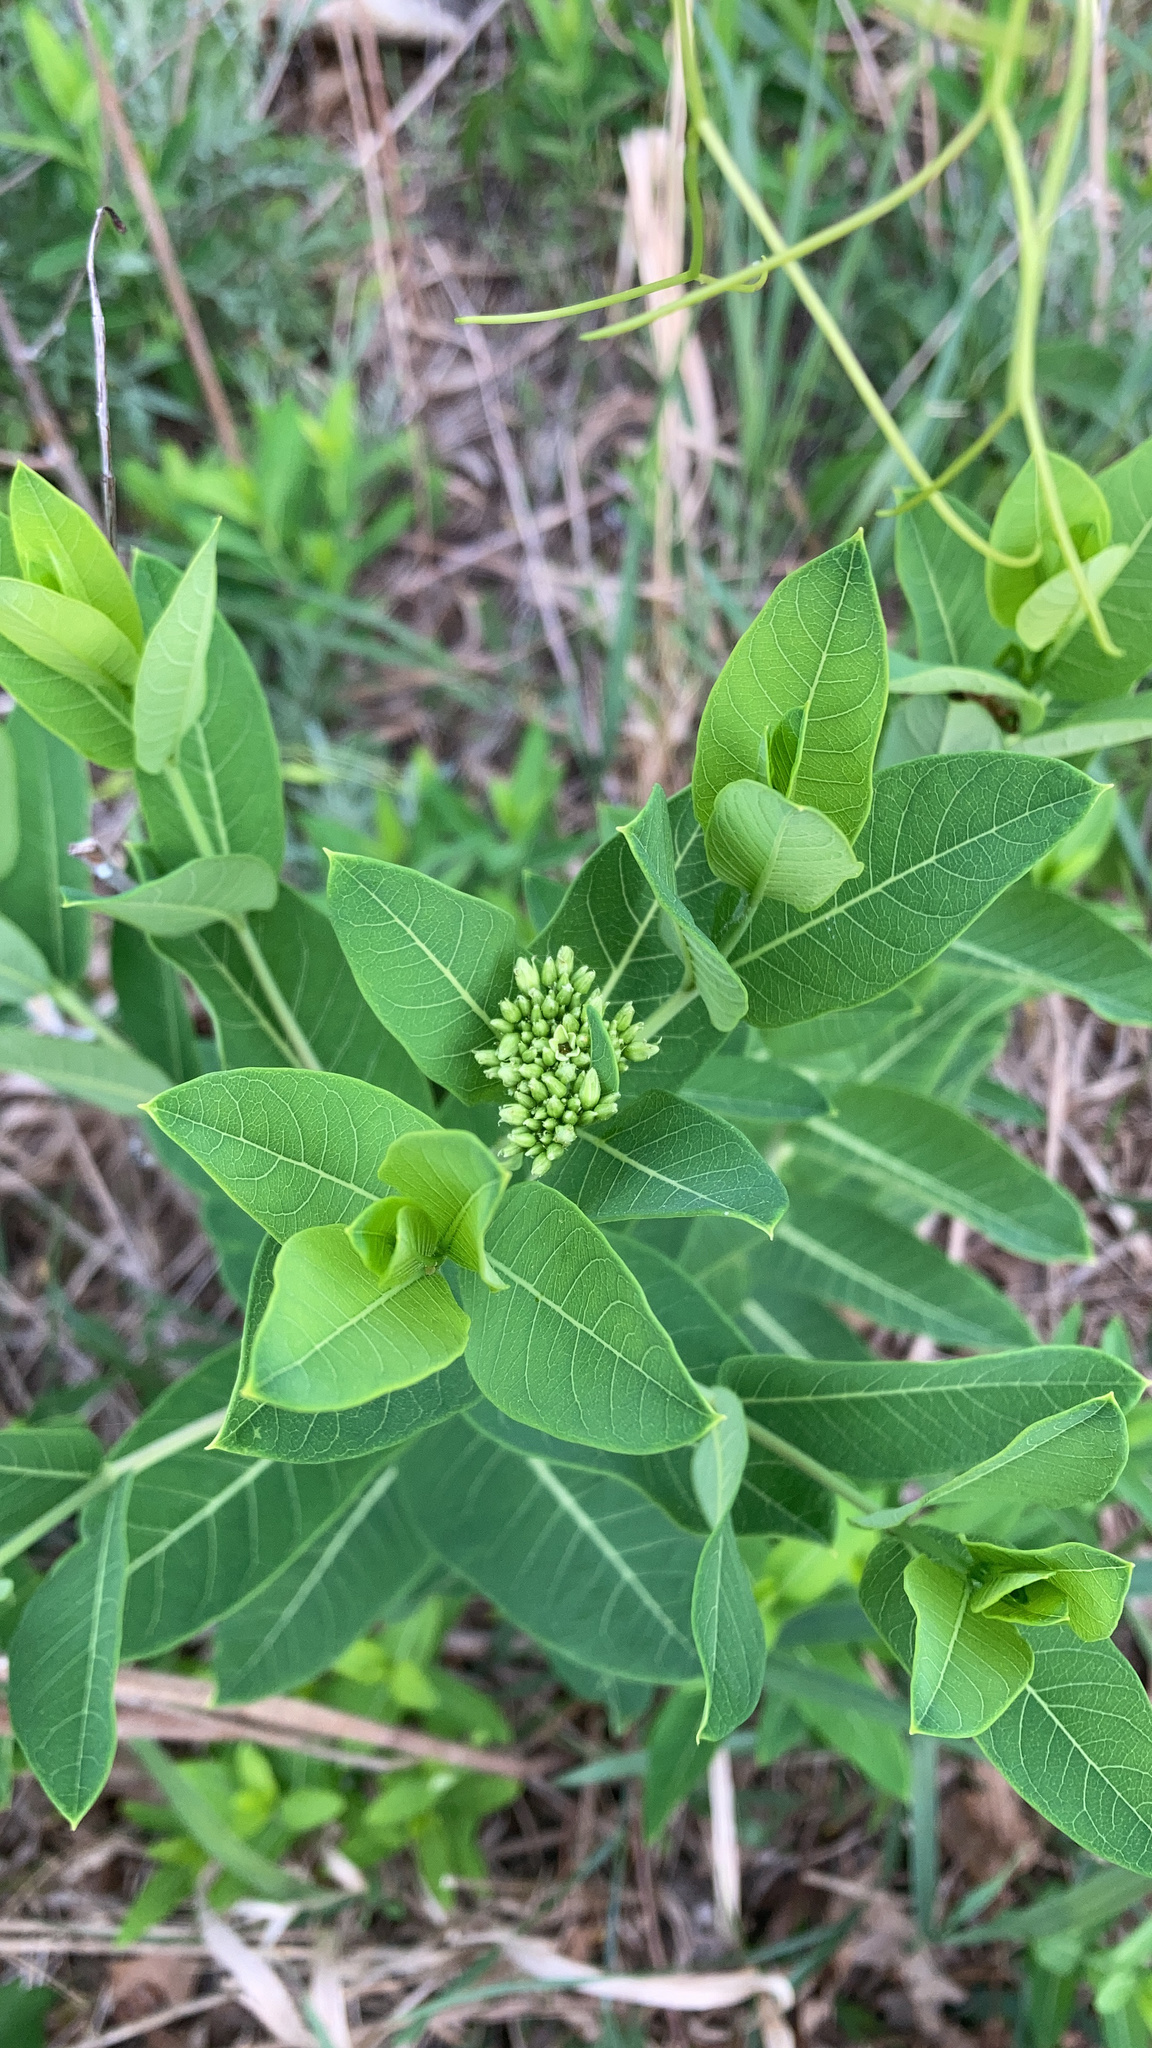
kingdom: Plantae
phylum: Tracheophyta
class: Magnoliopsida
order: Gentianales
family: Apocynaceae
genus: Apocynum
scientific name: Apocynum cannabinum
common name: Hemp dogbane
